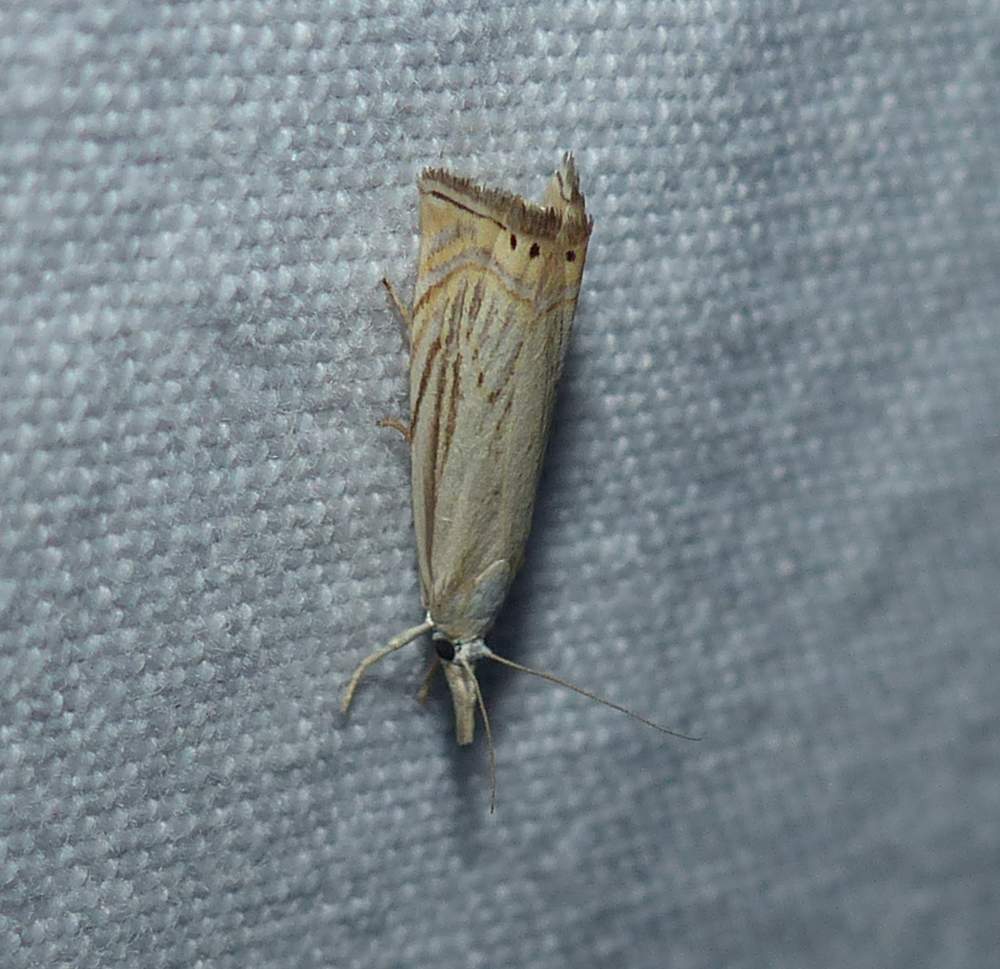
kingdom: Animalia
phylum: Arthropoda
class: Insecta
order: Lepidoptera
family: Crambidae
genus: Chrysoteuchia
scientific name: Chrysoteuchia topiarius
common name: Topiary grass-veneer
